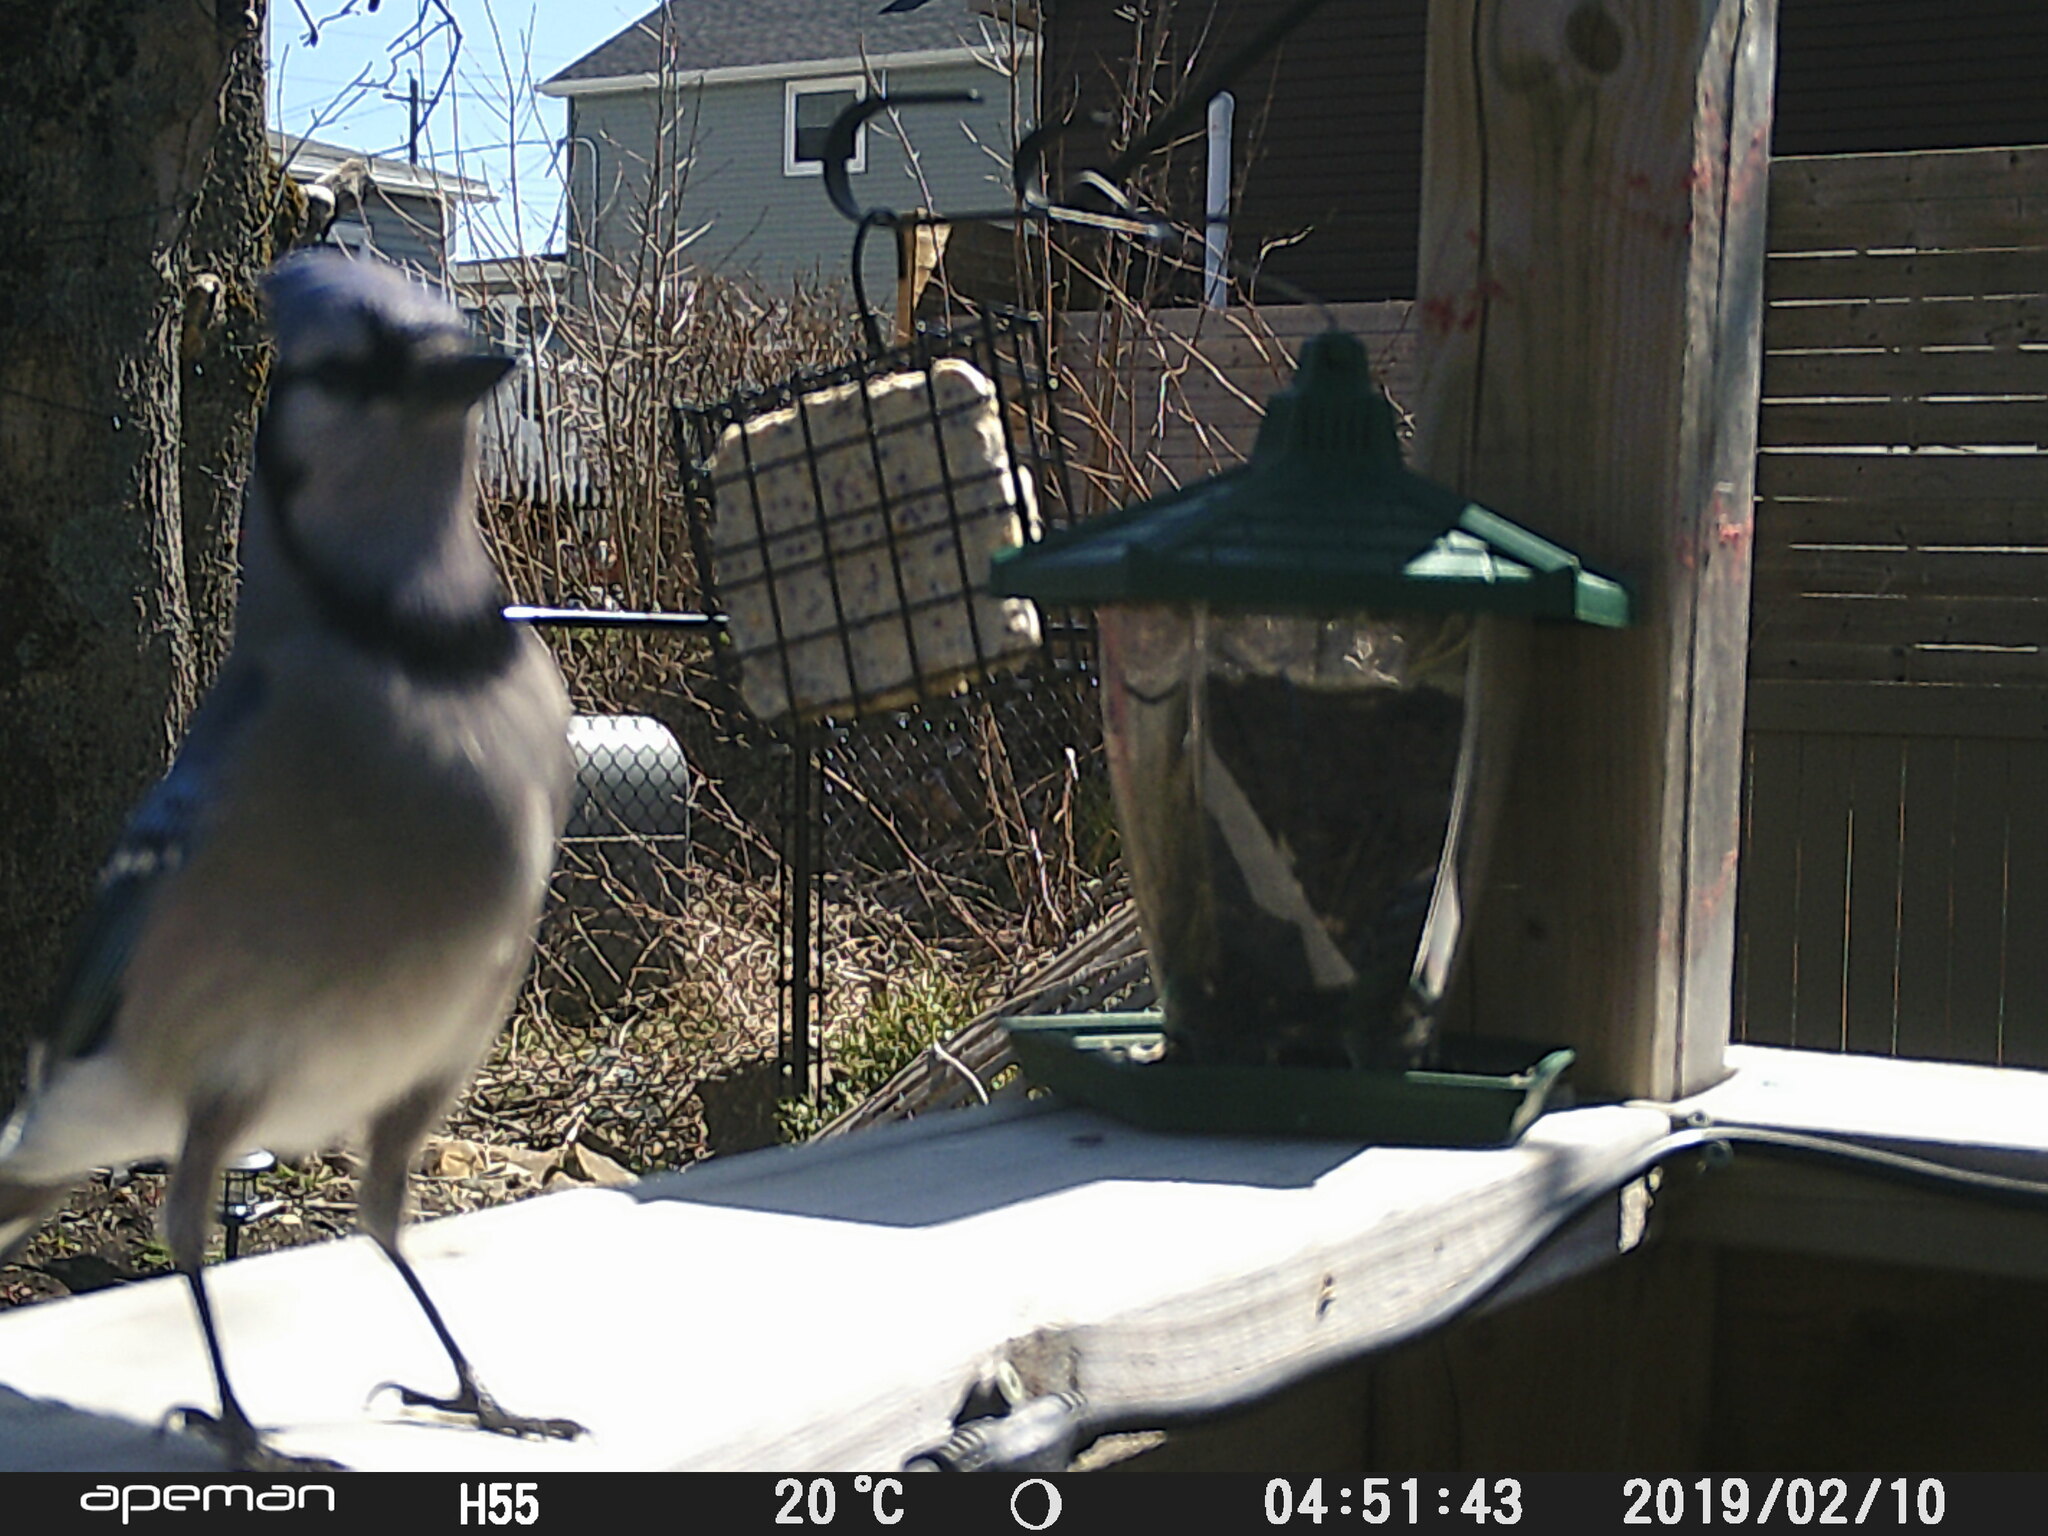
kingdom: Animalia
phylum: Chordata
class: Aves
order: Passeriformes
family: Corvidae
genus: Cyanocitta
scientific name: Cyanocitta cristata
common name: Blue jay
